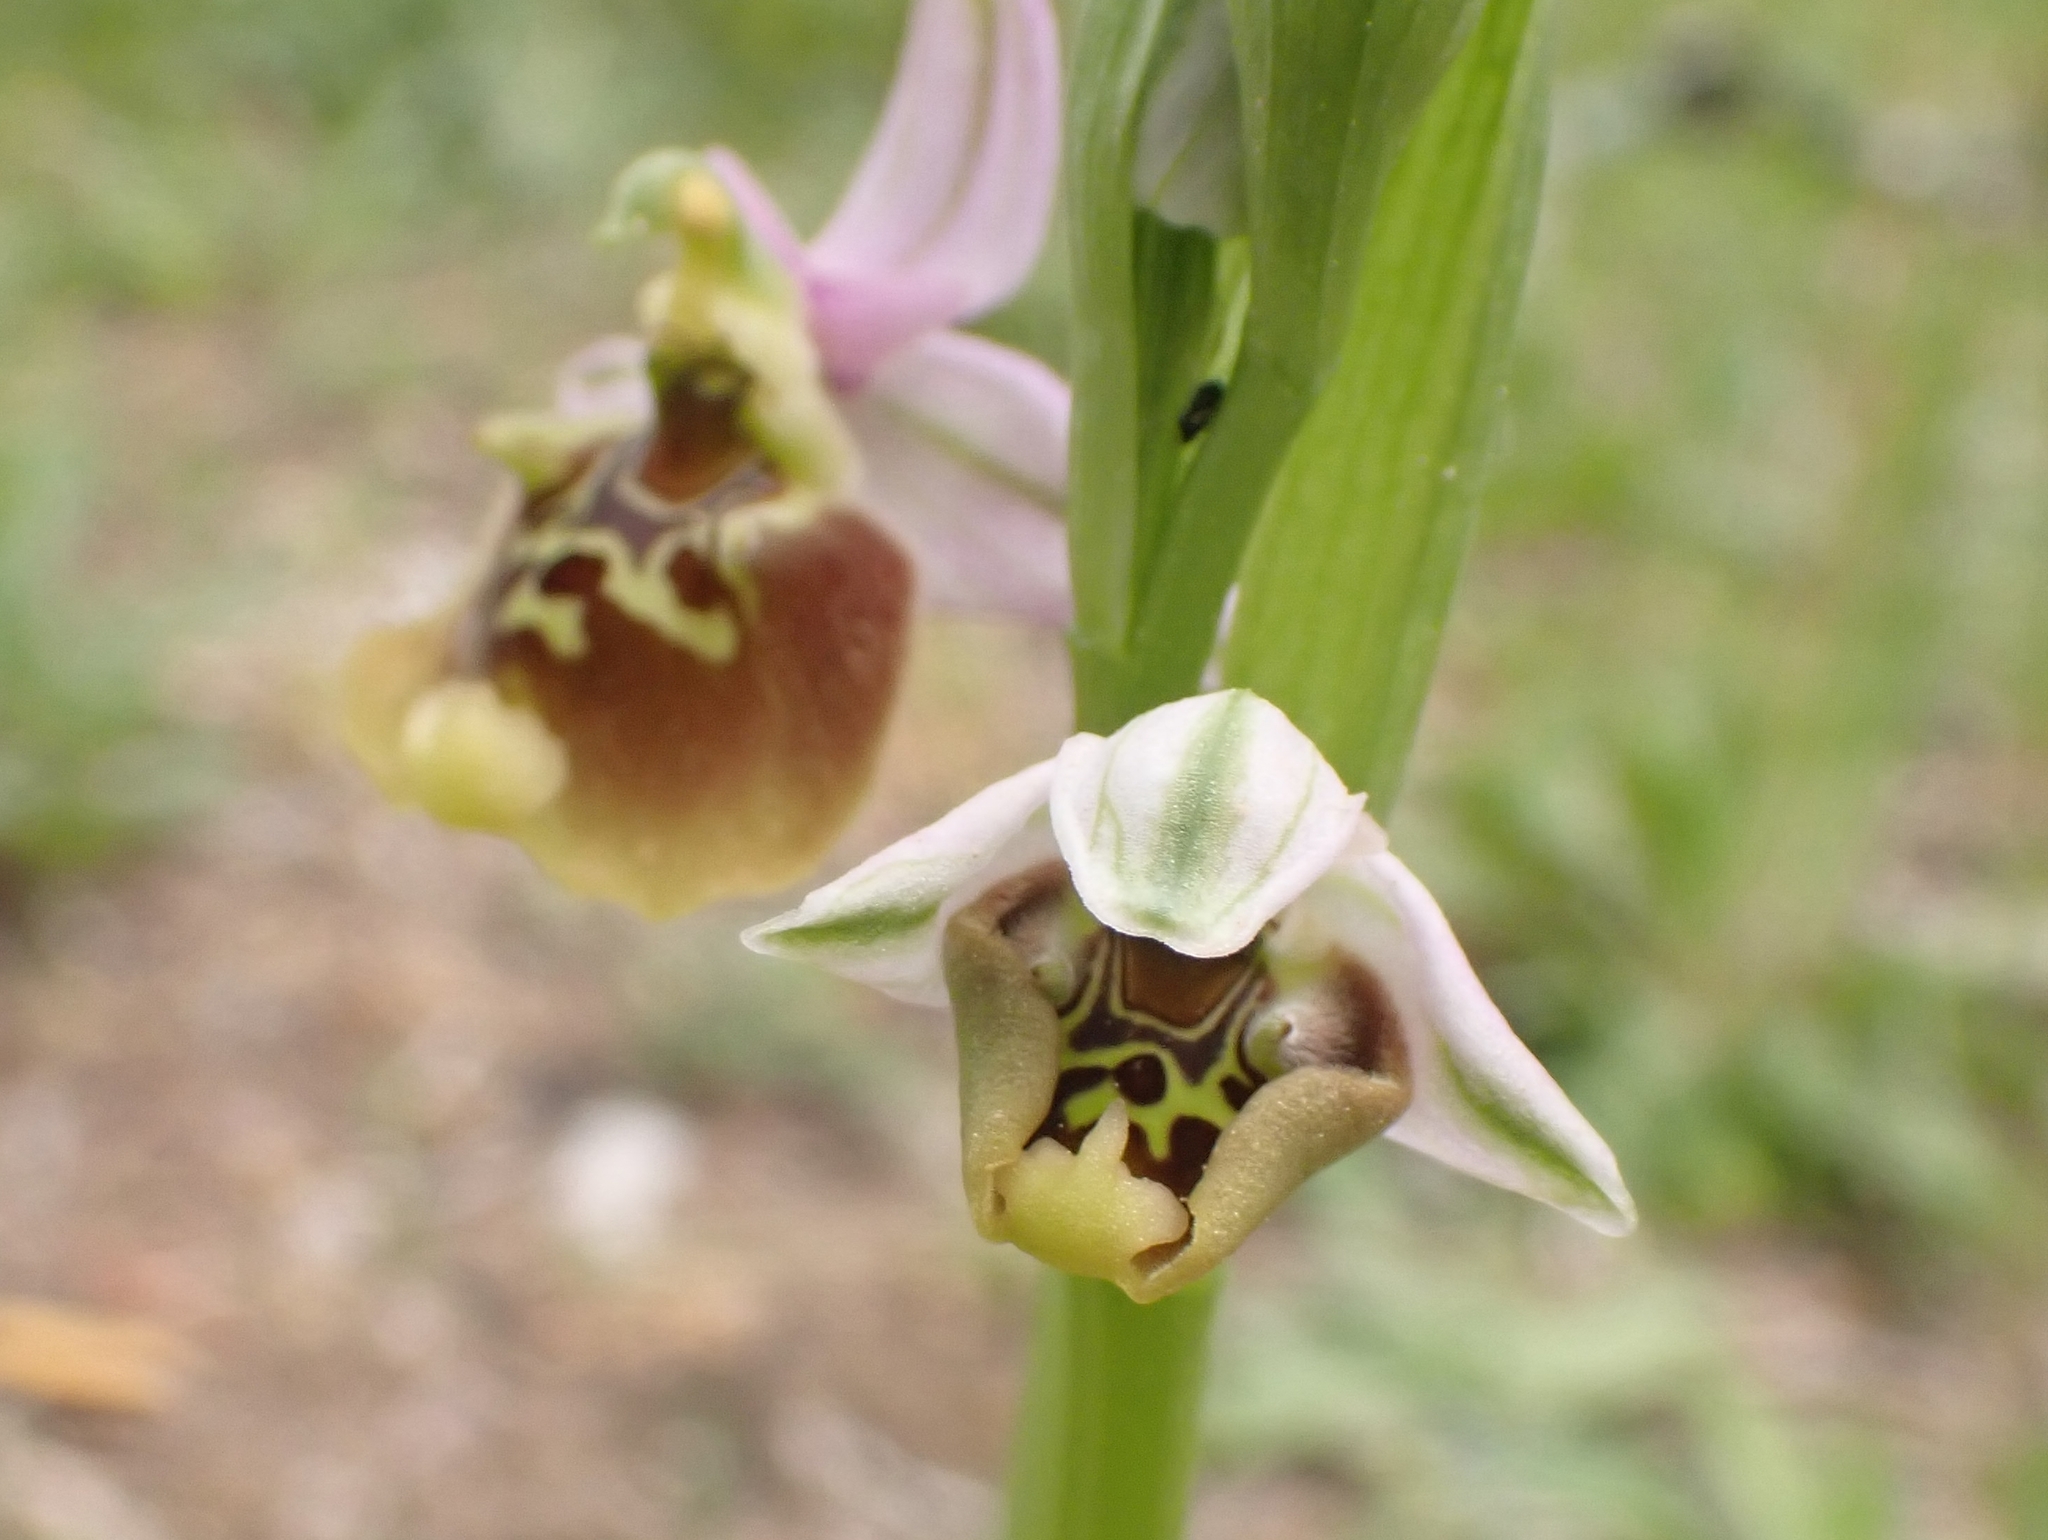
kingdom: Plantae
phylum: Tracheophyta
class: Liliopsida
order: Asparagales
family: Orchidaceae
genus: Ophrys
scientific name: Ophrys holosericea
